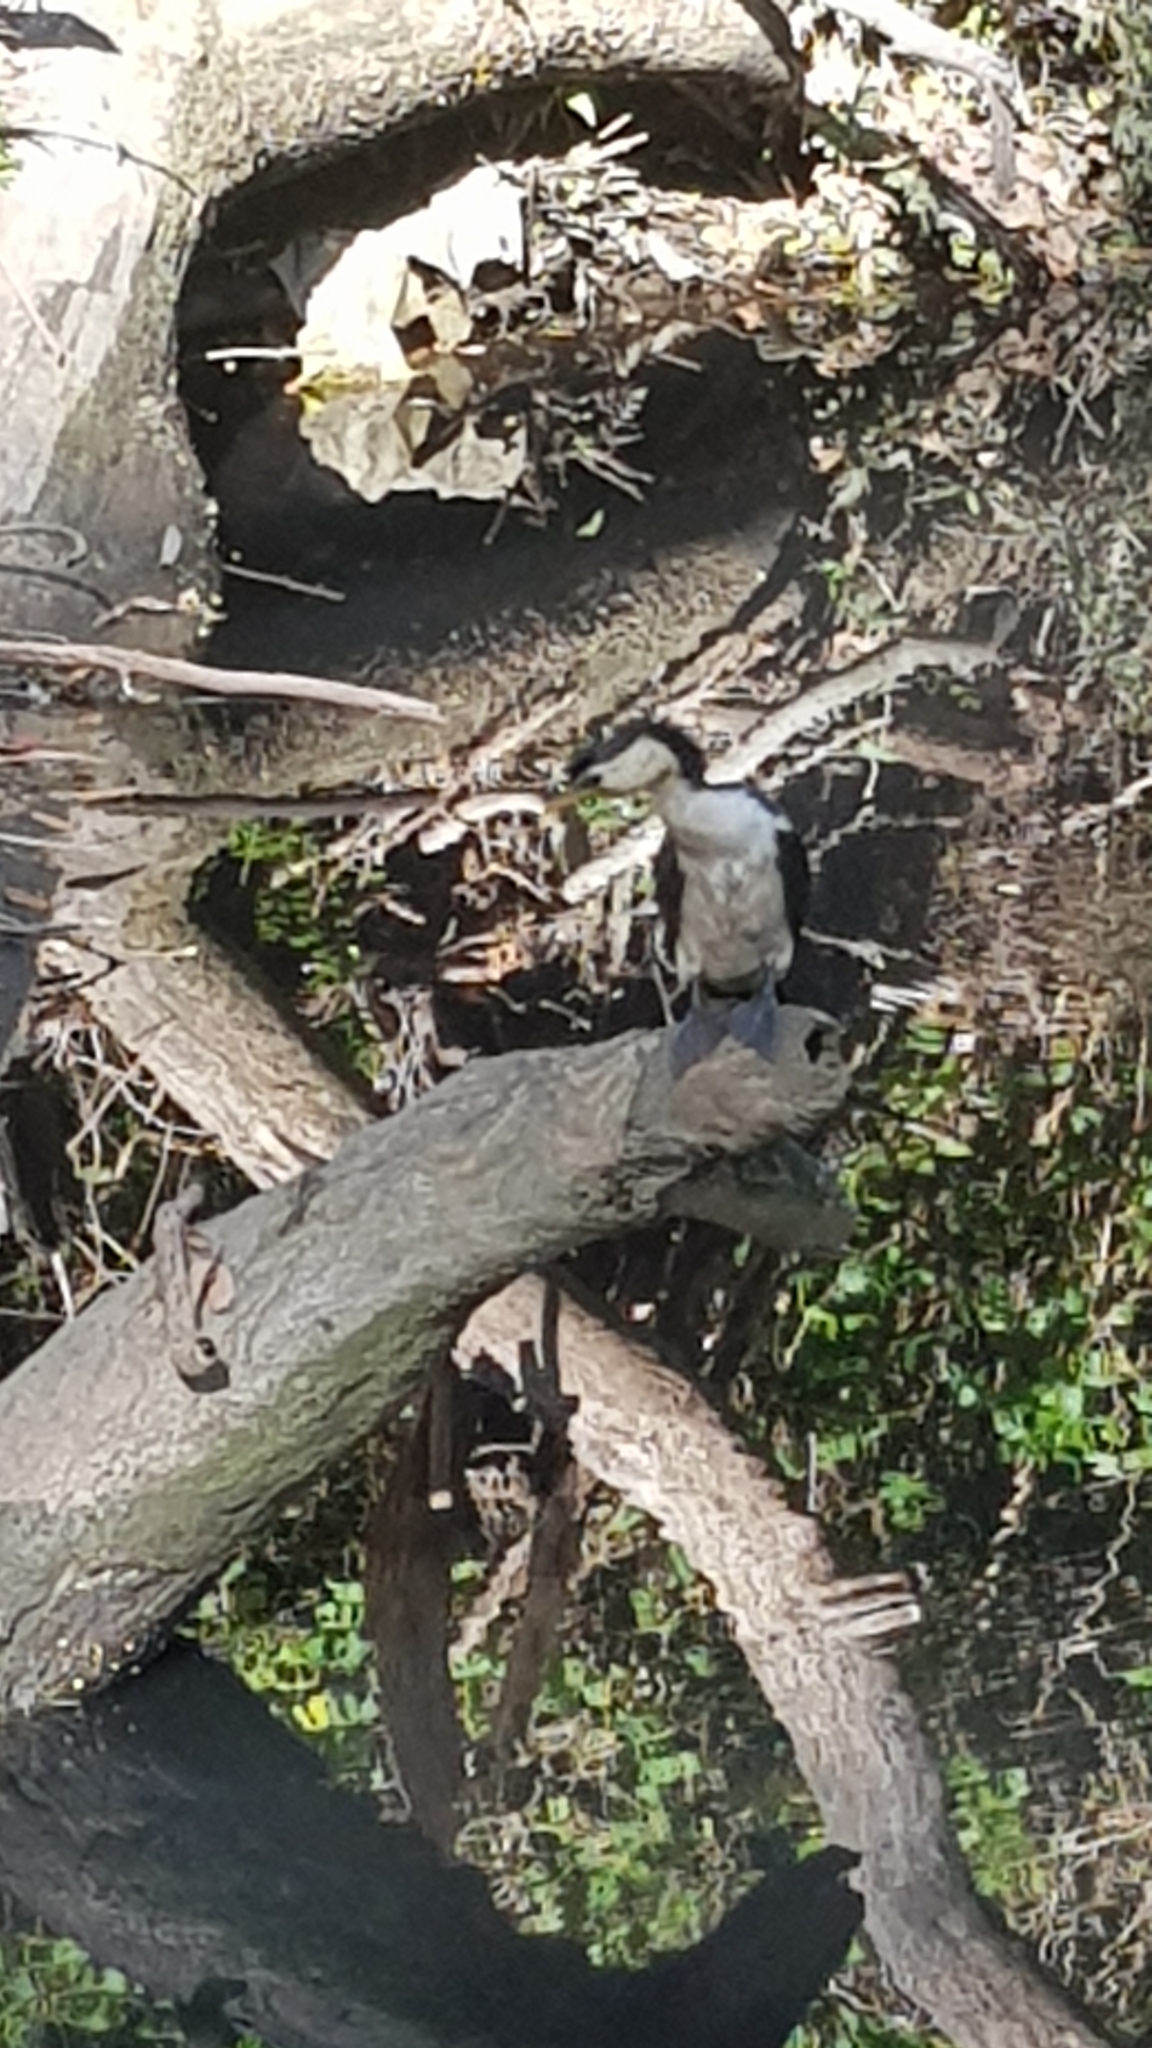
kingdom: Animalia
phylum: Chordata
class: Aves
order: Suliformes
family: Phalacrocoracidae
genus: Microcarbo
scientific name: Microcarbo melanoleucos
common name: Little pied cormorant
